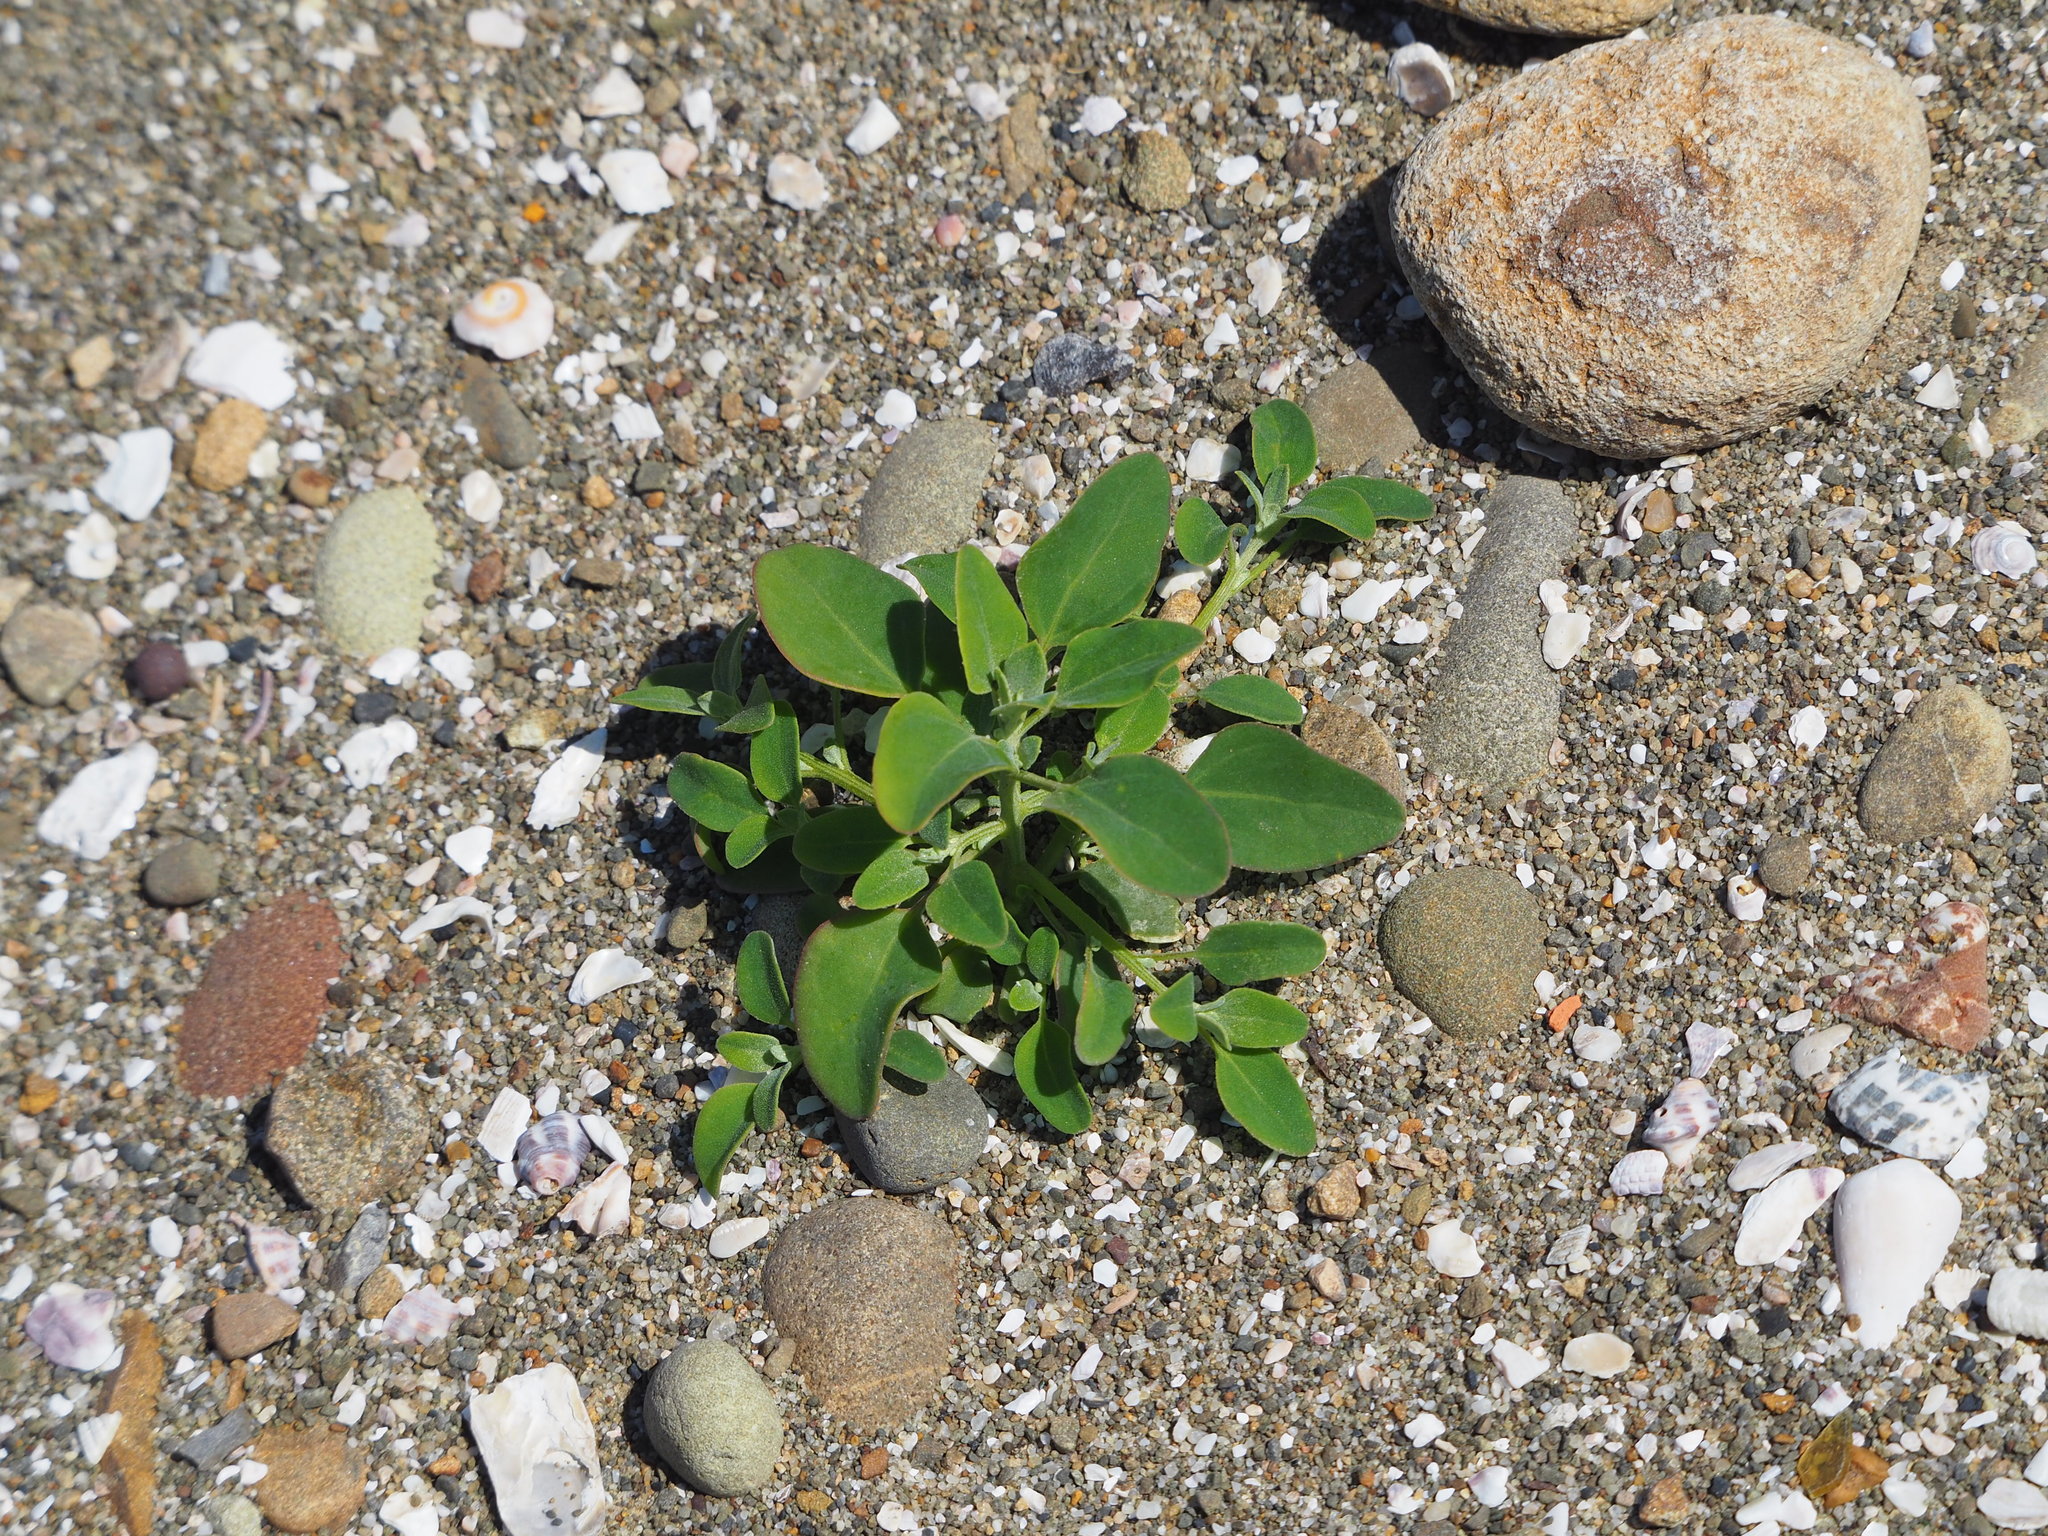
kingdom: Plantae
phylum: Tracheophyta
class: Magnoliopsida
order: Caryophyllales
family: Amaranthaceae
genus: Chenopodium
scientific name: Chenopodium acuminatum
